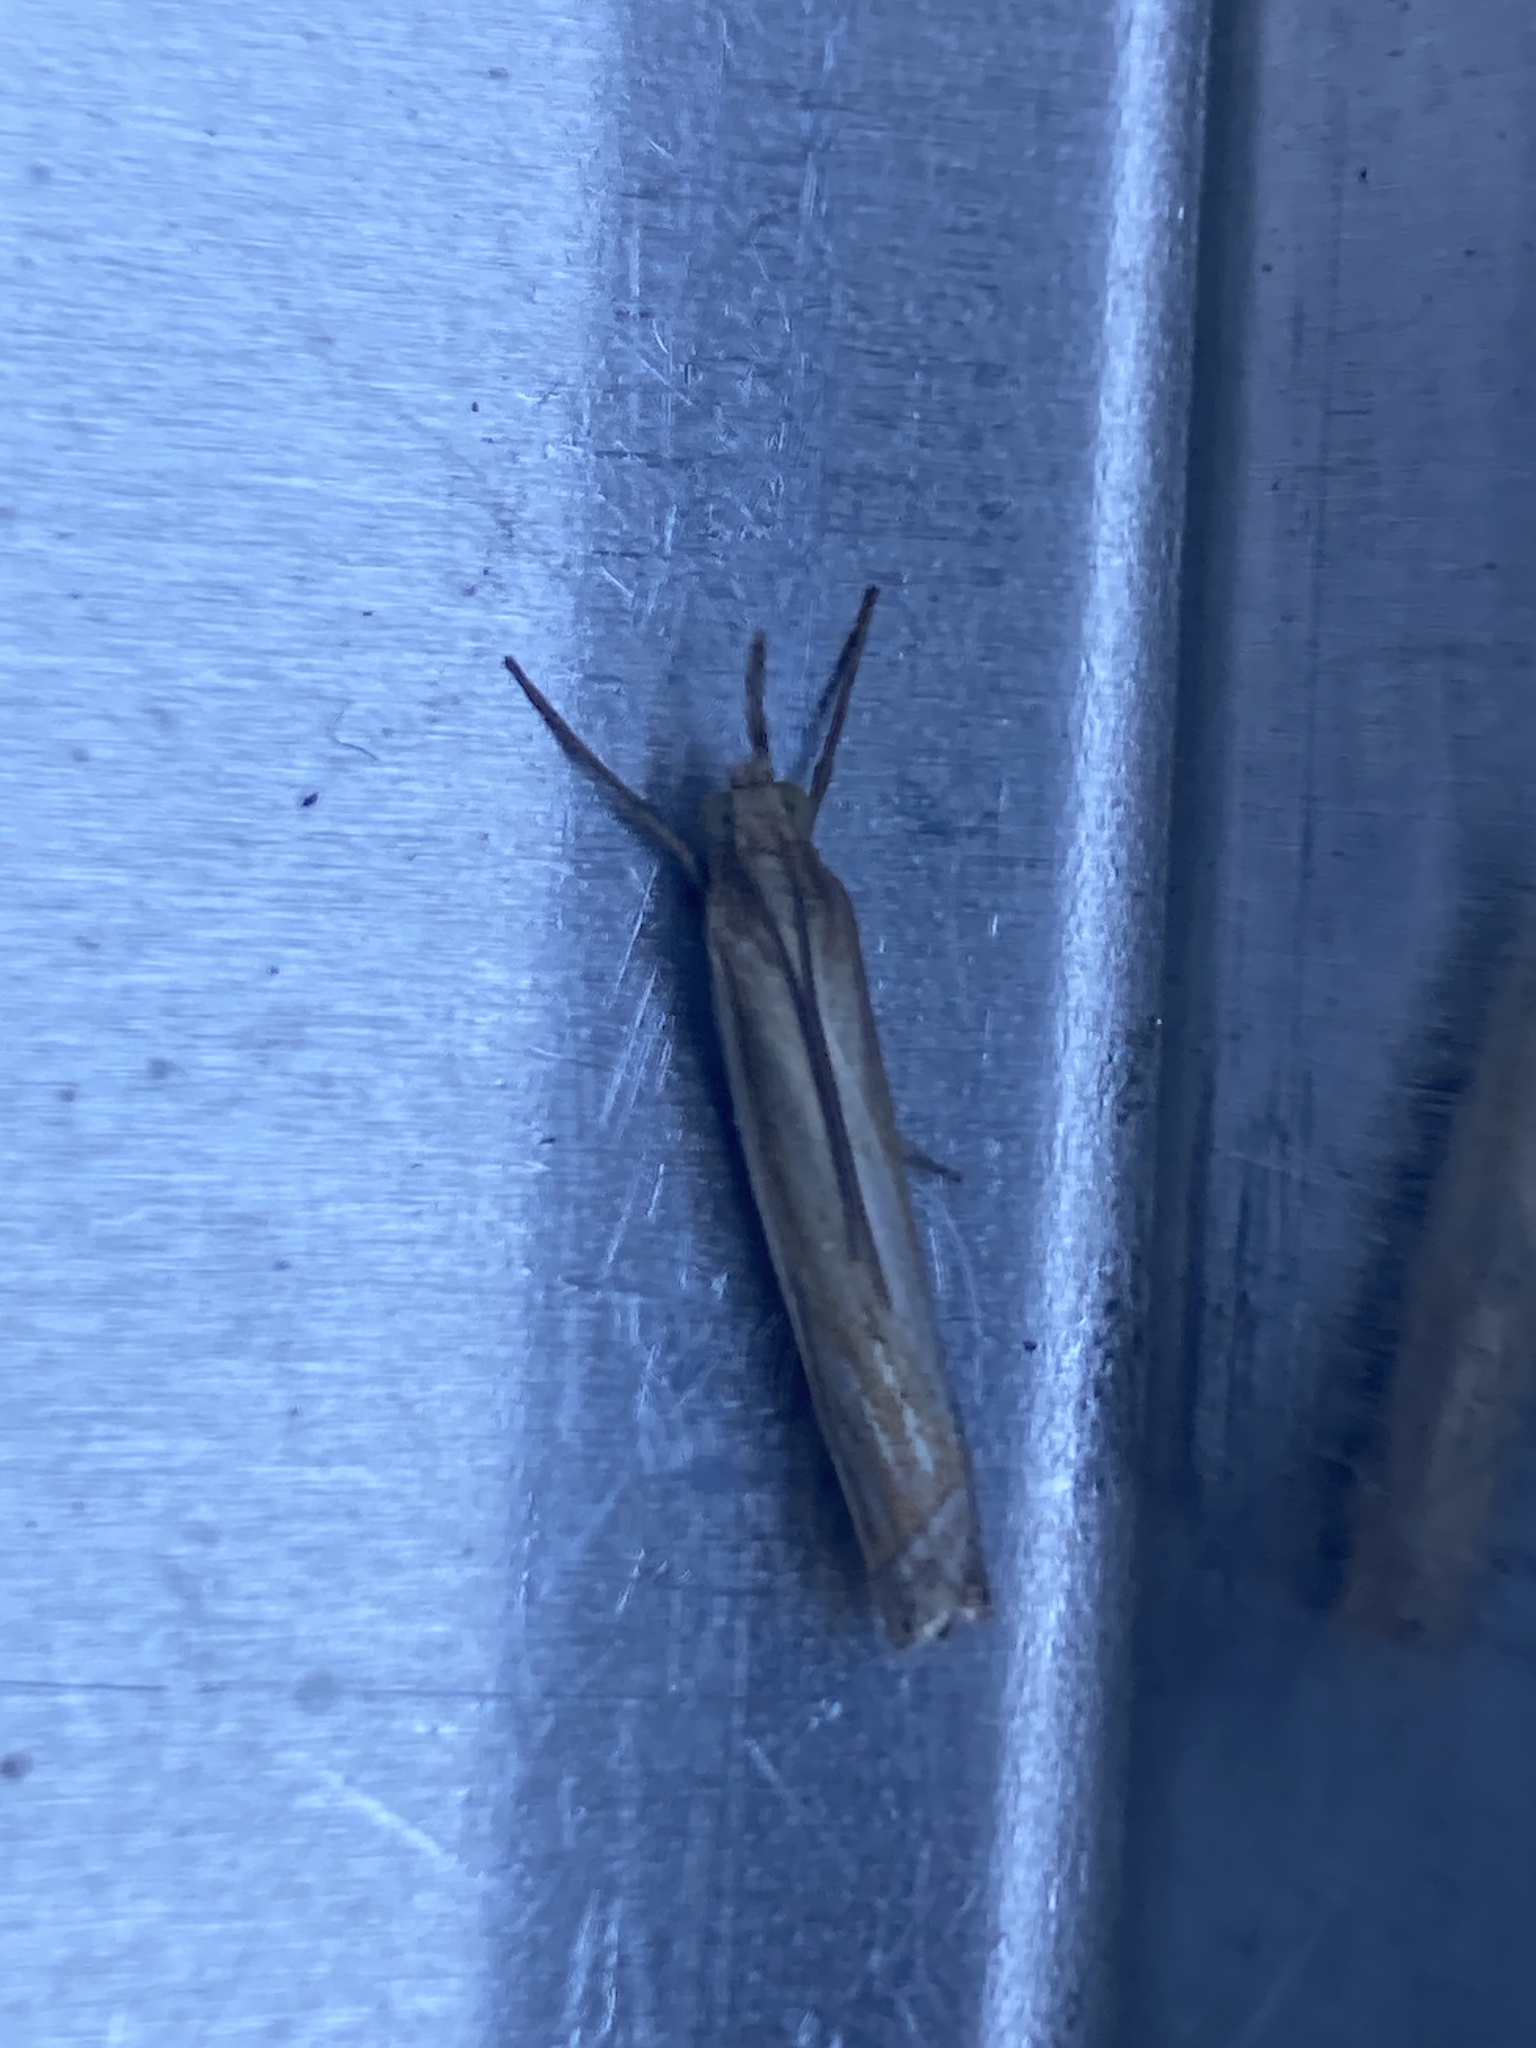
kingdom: Animalia
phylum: Arthropoda
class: Insecta
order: Lepidoptera
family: Crambidae
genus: Crambus
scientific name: Crambus pascuella
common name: Inlaid grass-veneer
